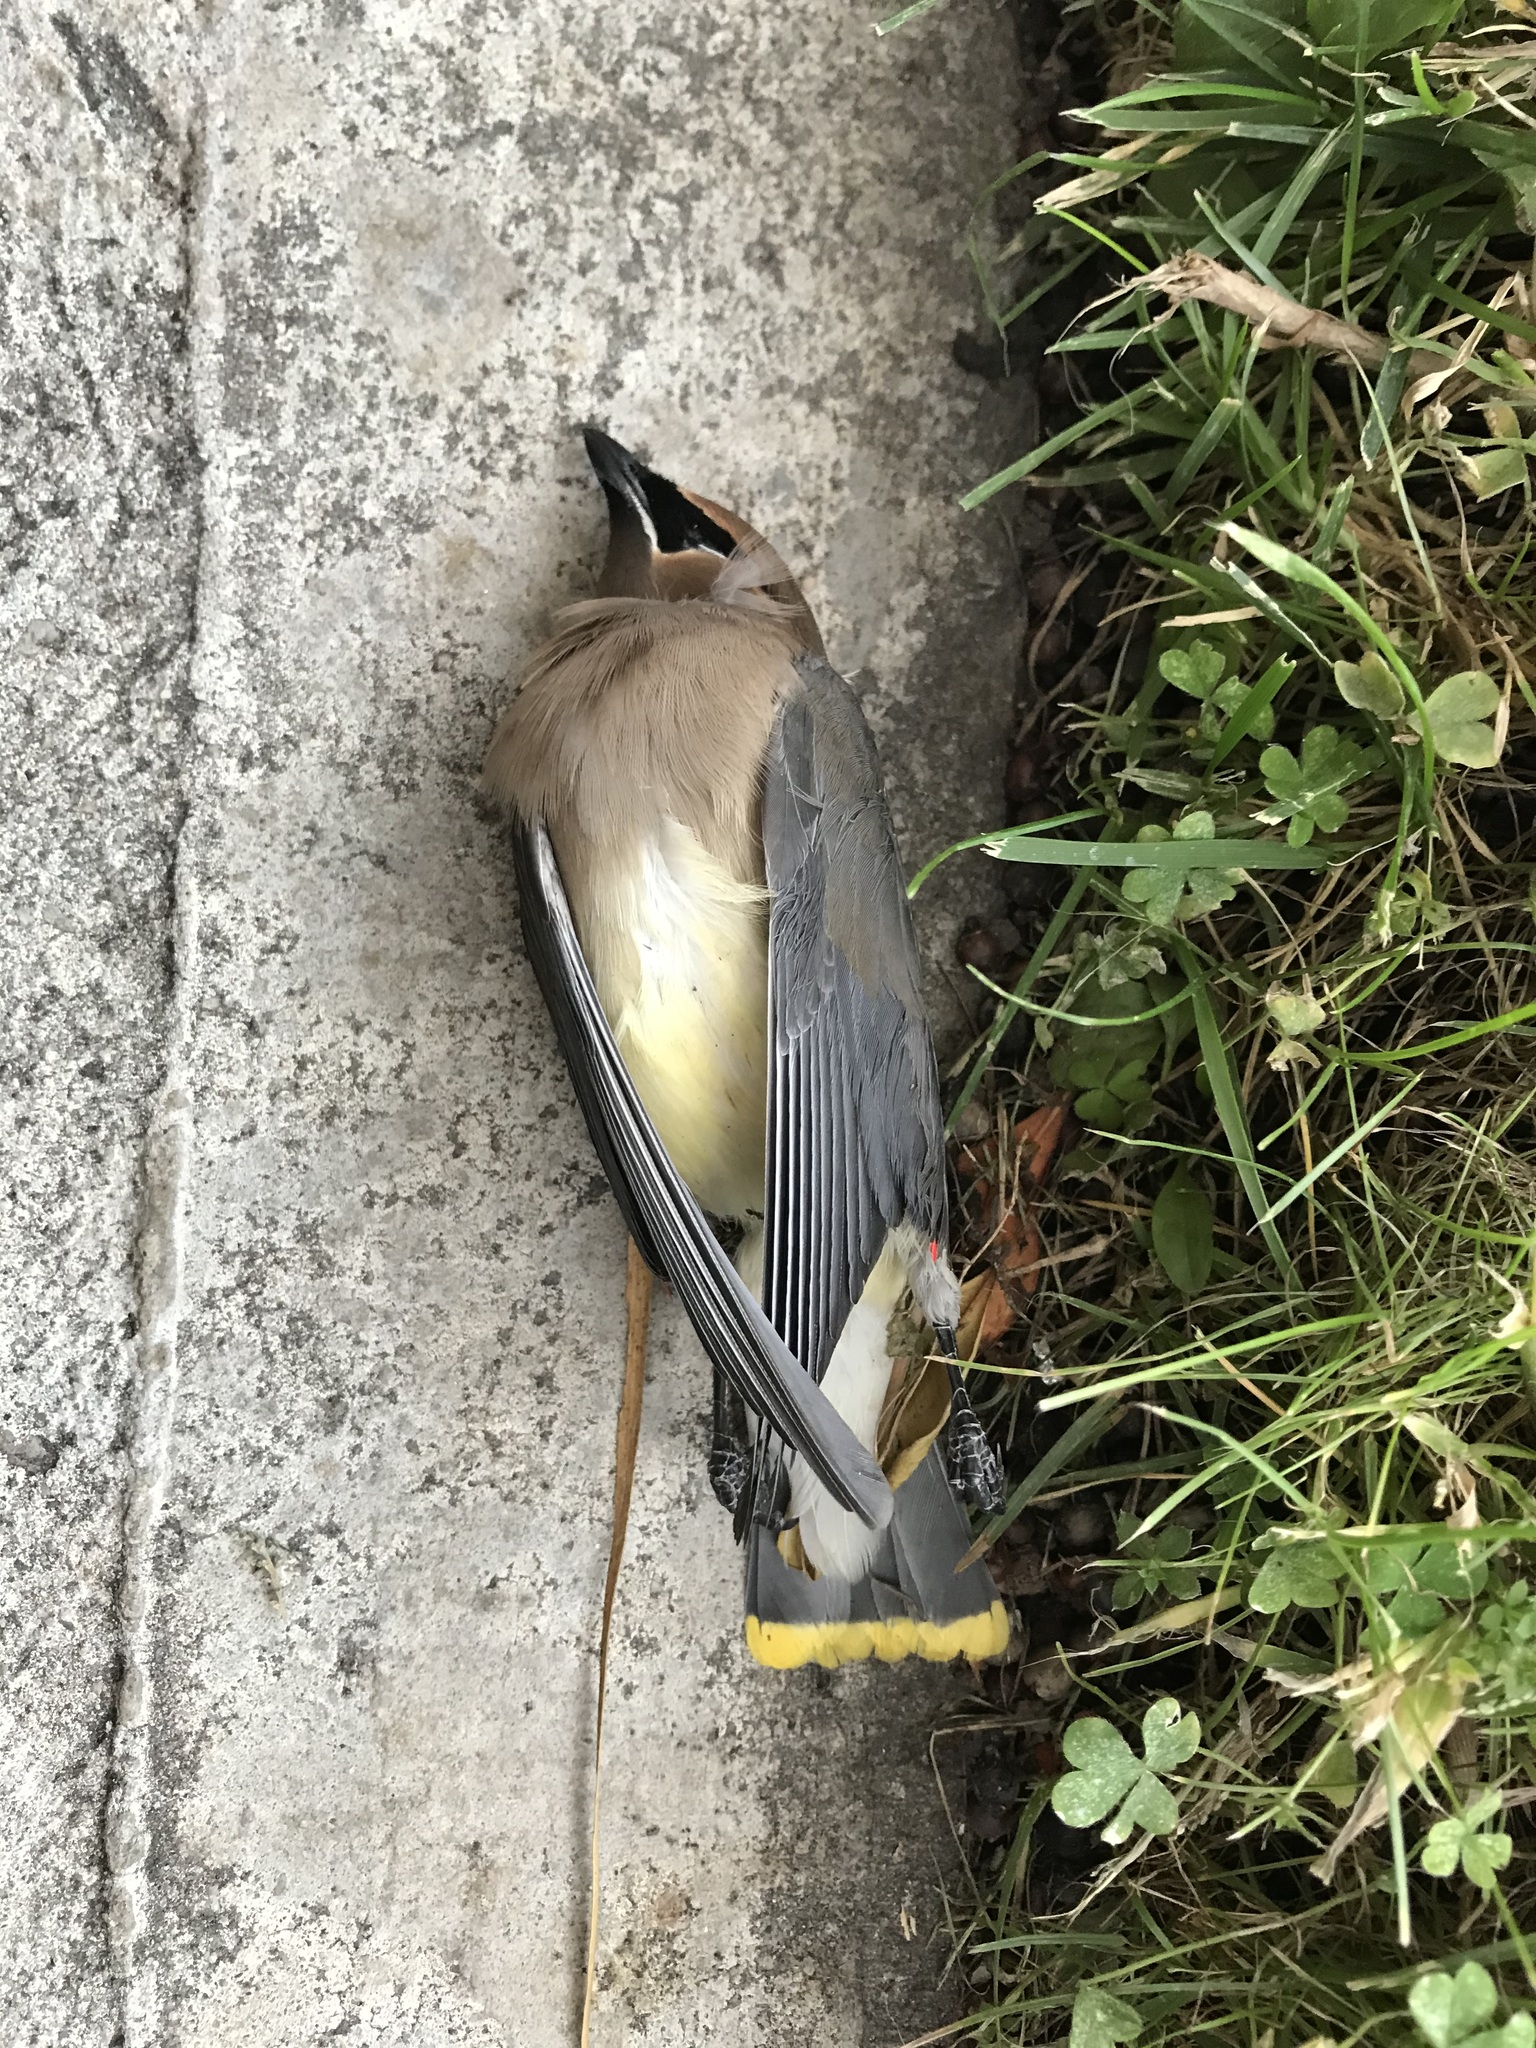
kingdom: Animalia
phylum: Chordata
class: Aves
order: Passeriformes
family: Bombycillidae
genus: Bombycilla
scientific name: Bombycilla cedrorum
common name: Cedar waxwing
